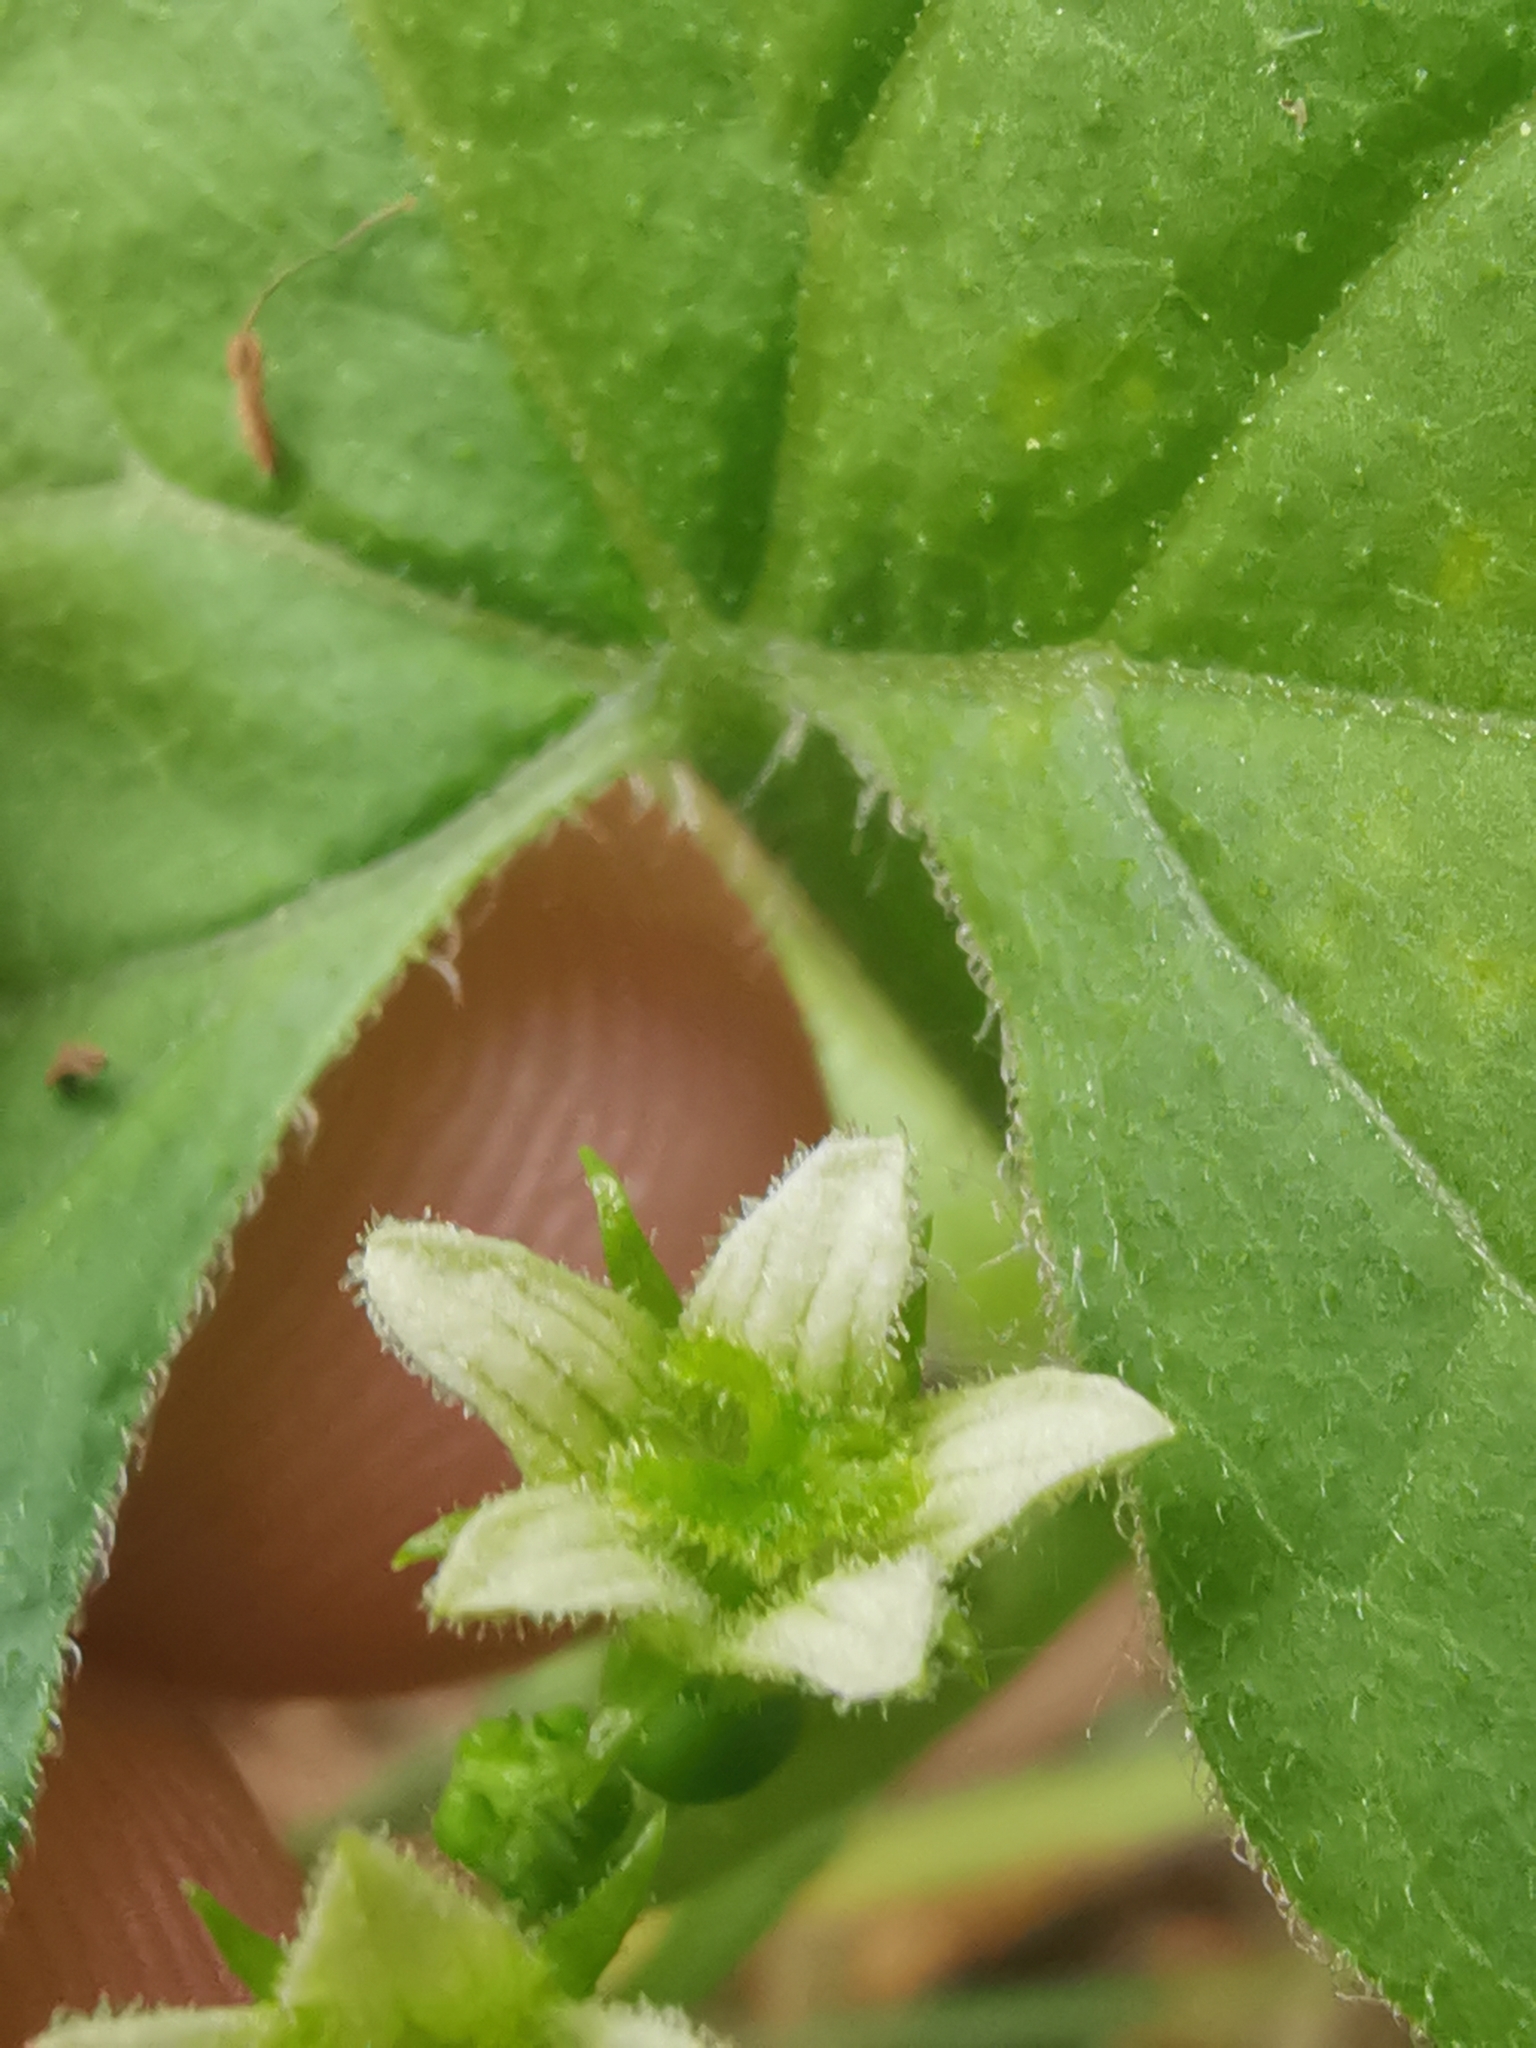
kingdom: Plantae
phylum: Tracheophyta
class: Magnoliopsida
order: Cucurbitales
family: Cucurbitaceae
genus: Bryonia
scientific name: Bryonia dioica
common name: White bryony
